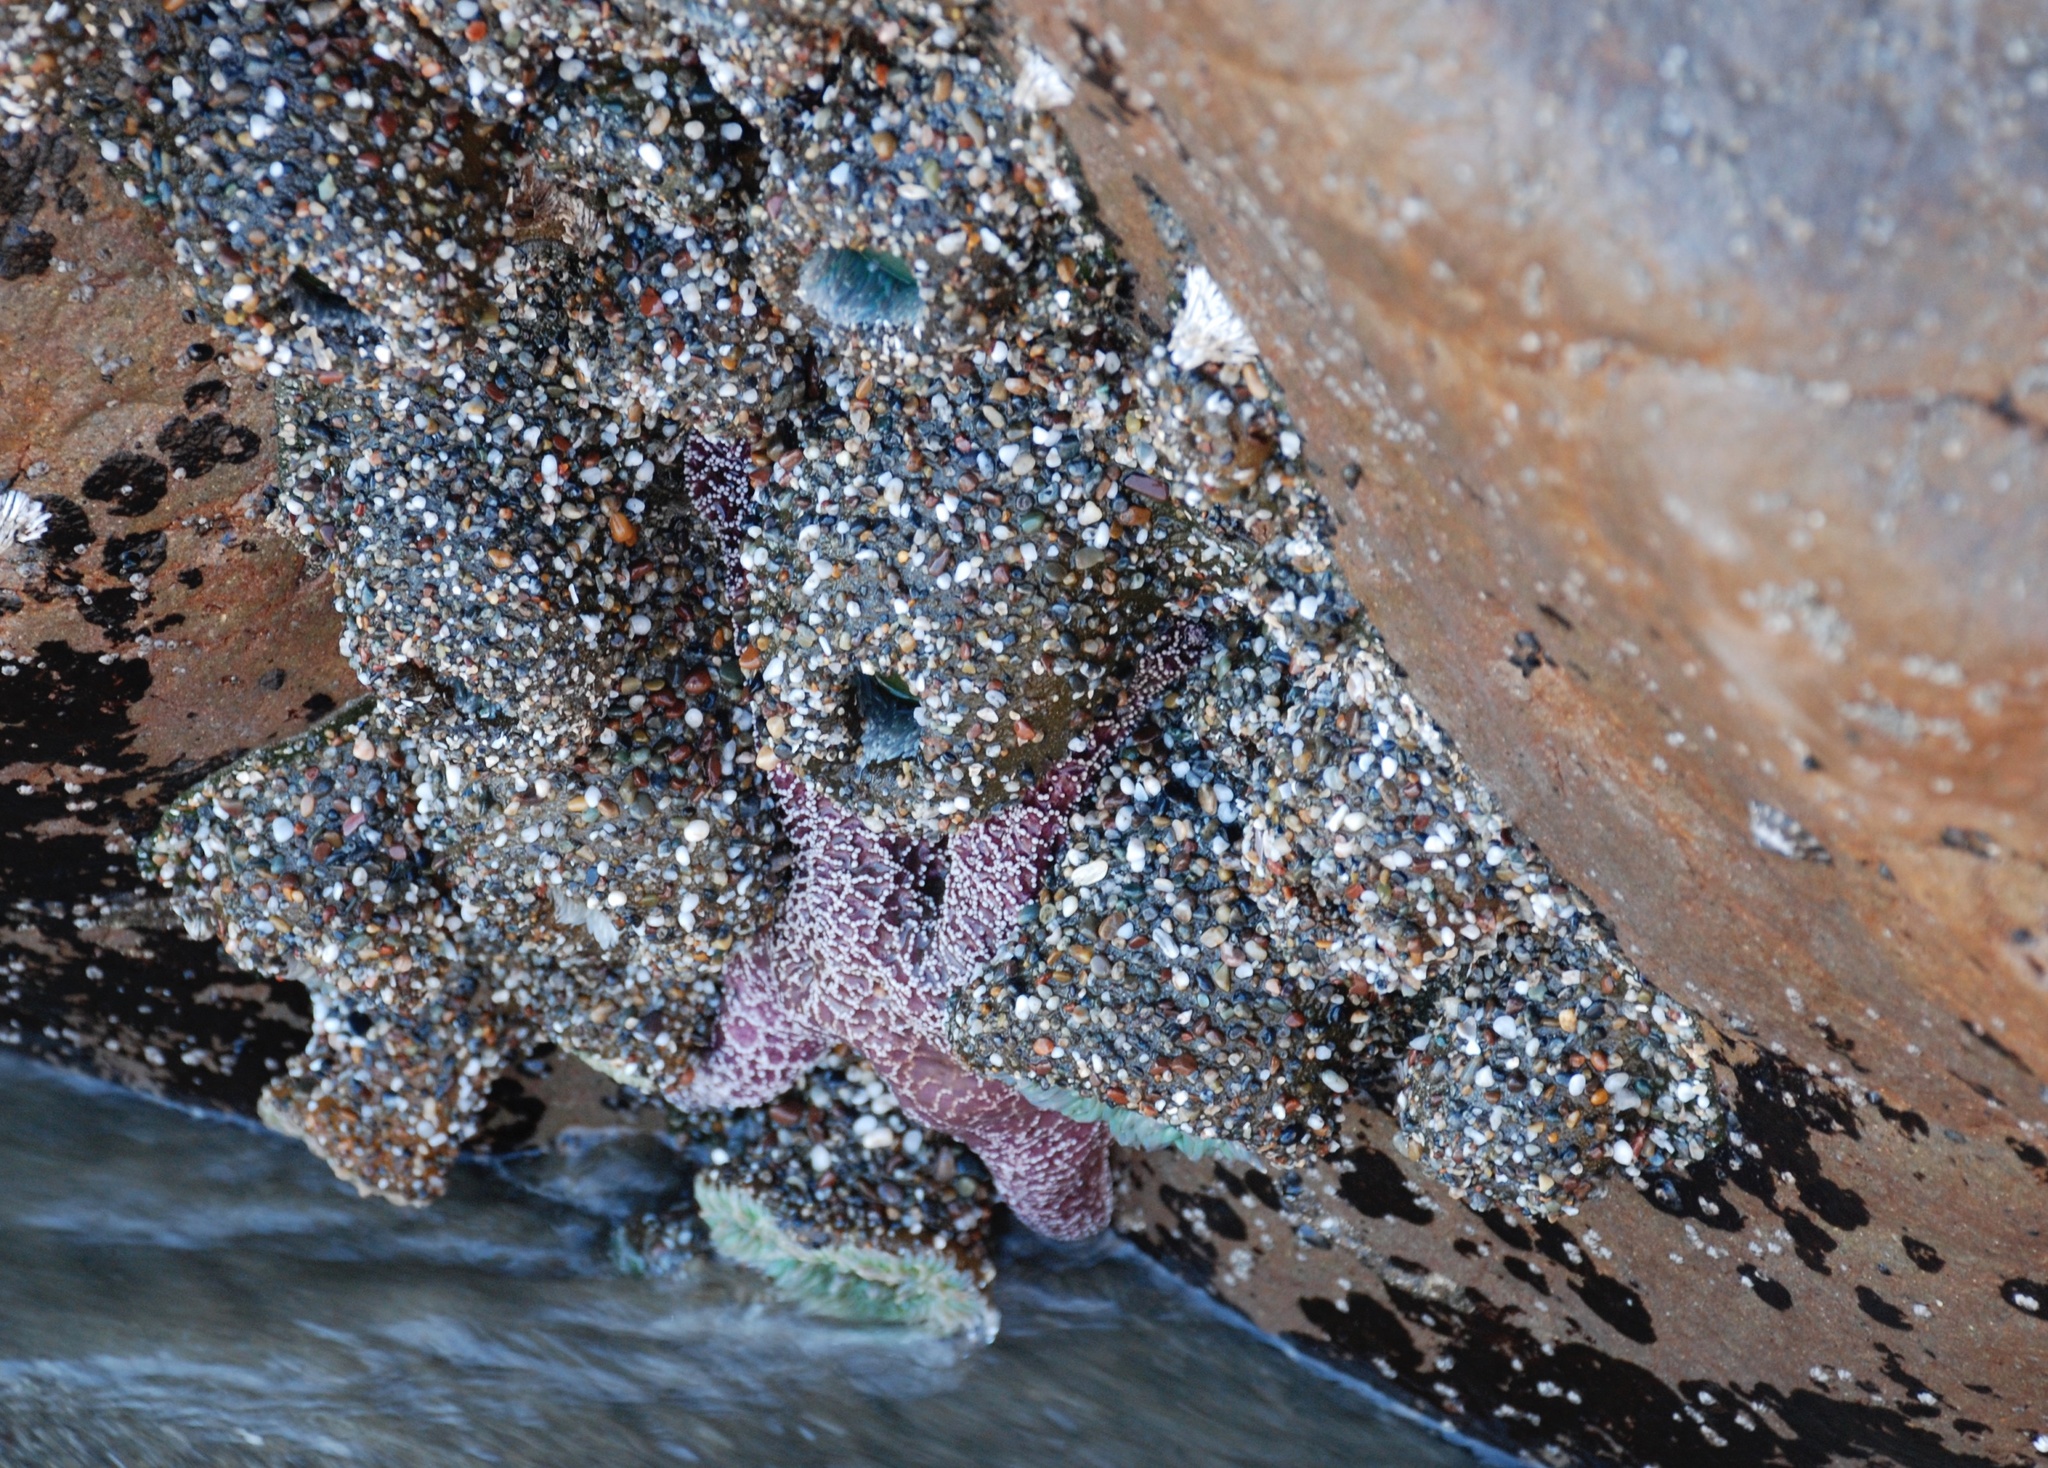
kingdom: Animalia
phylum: Cnidaria
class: Anthozoa
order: Actiniaria
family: Actiniidae
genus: Anthopleura
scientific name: Anthopleura xanthogrammica
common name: Giant green anemone
